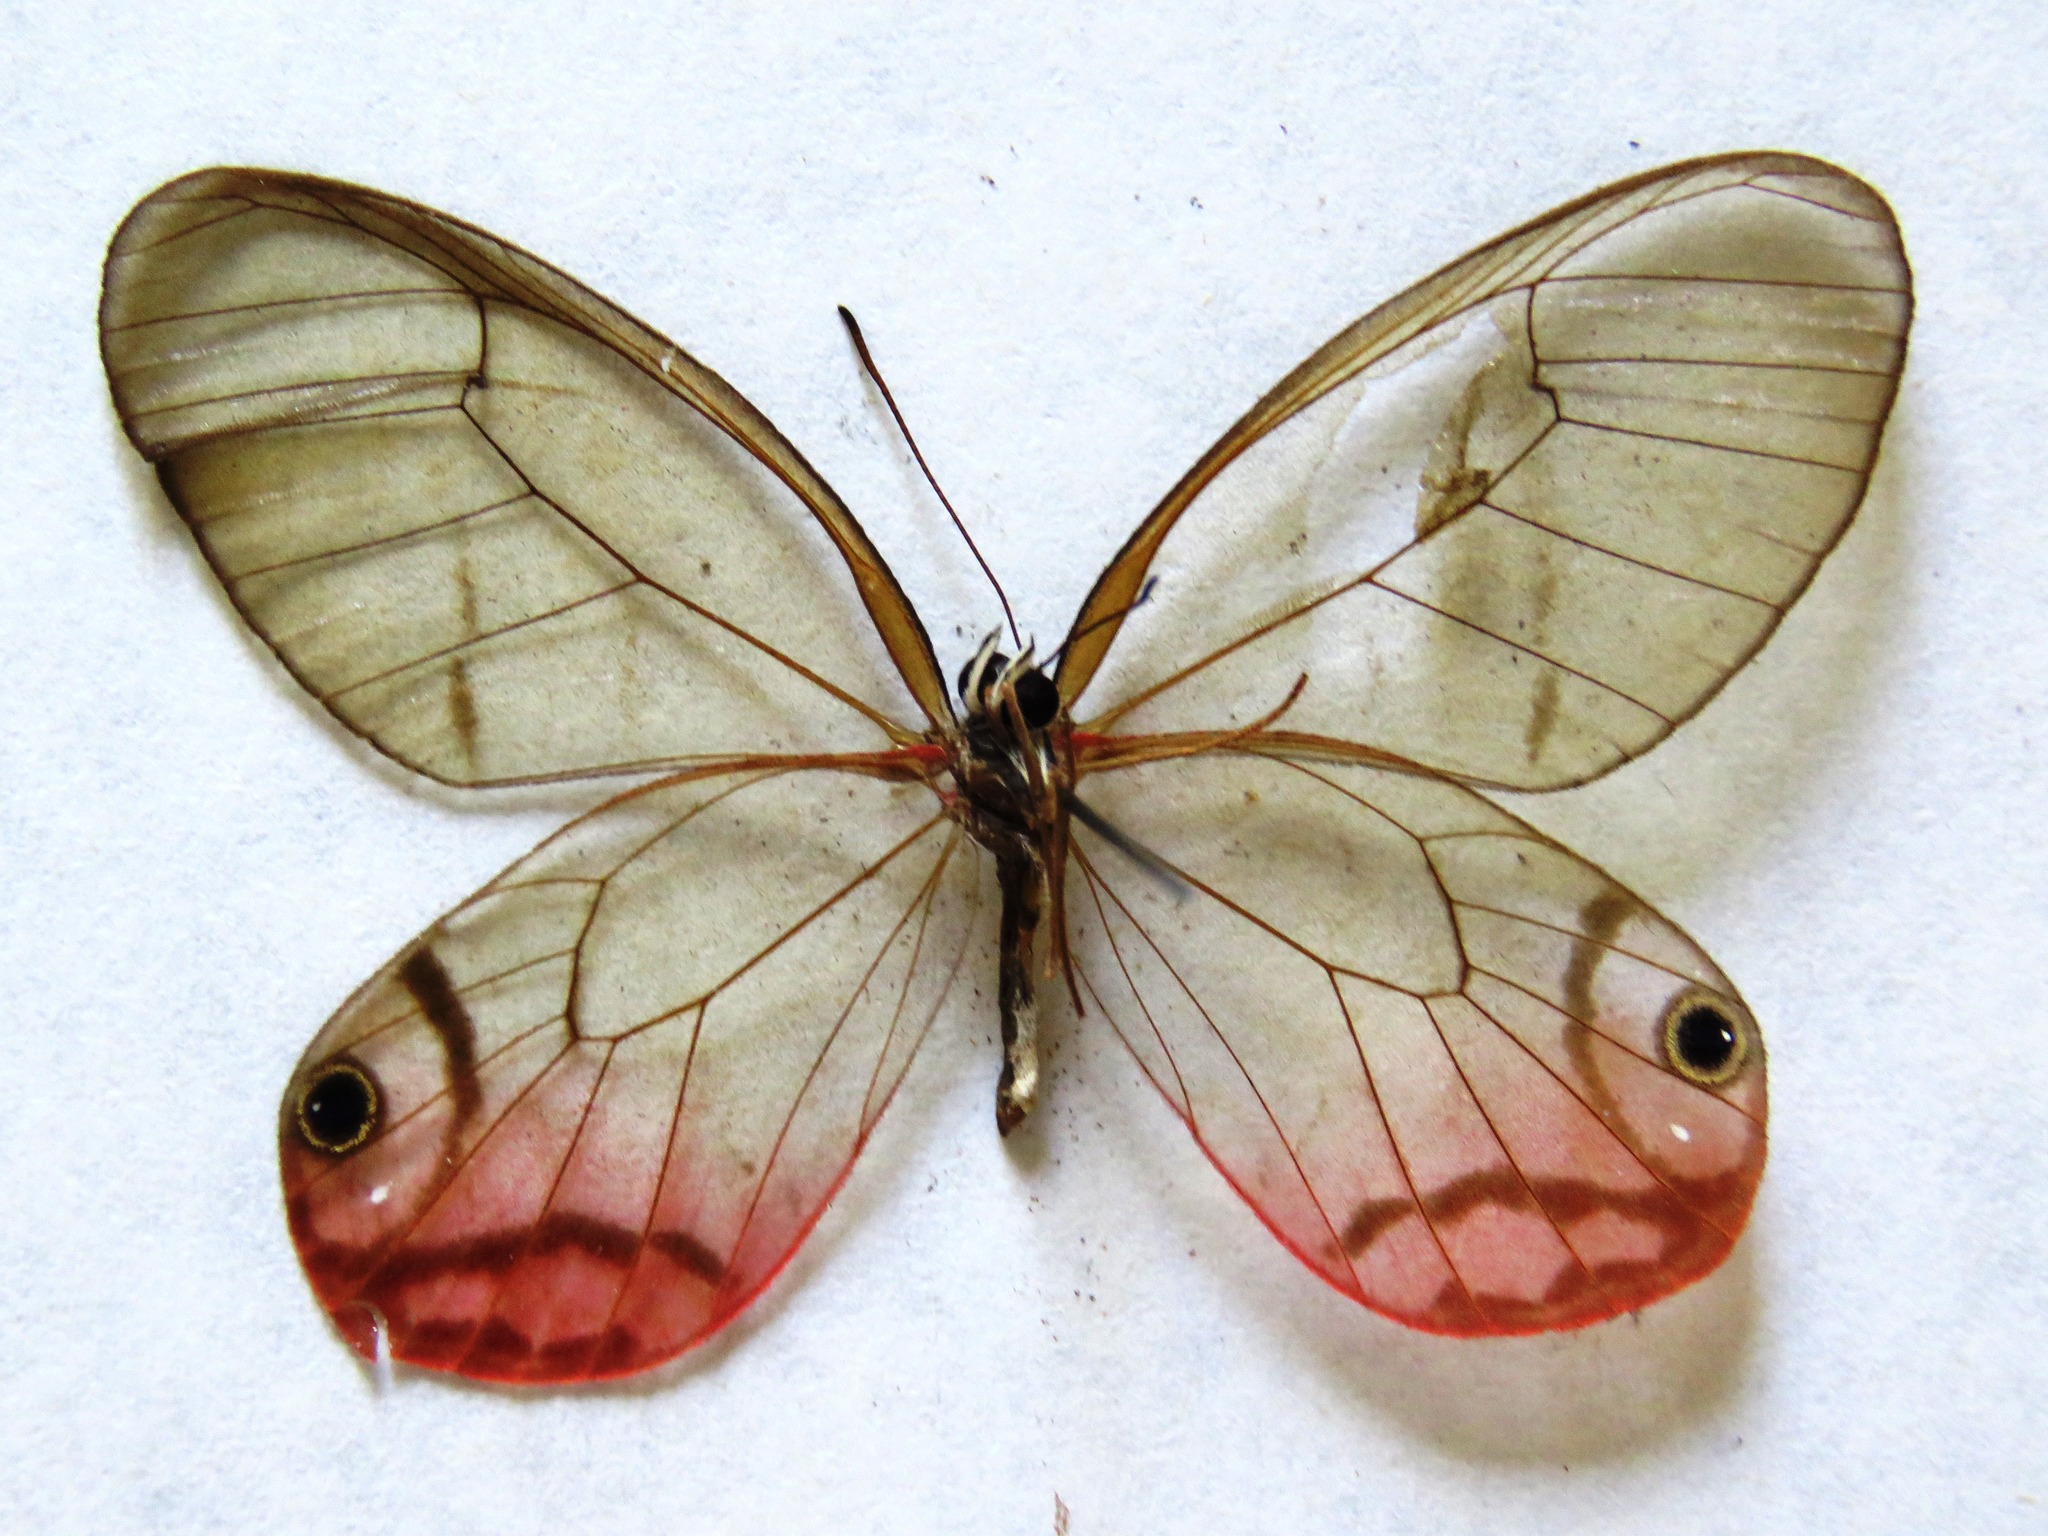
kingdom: Animalia
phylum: Arthropoda
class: Insecta
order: Lepidoptera
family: Nymphalidae
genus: Cithaerias
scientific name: Cithaerias pireta
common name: Rusted clearwing-satyr
